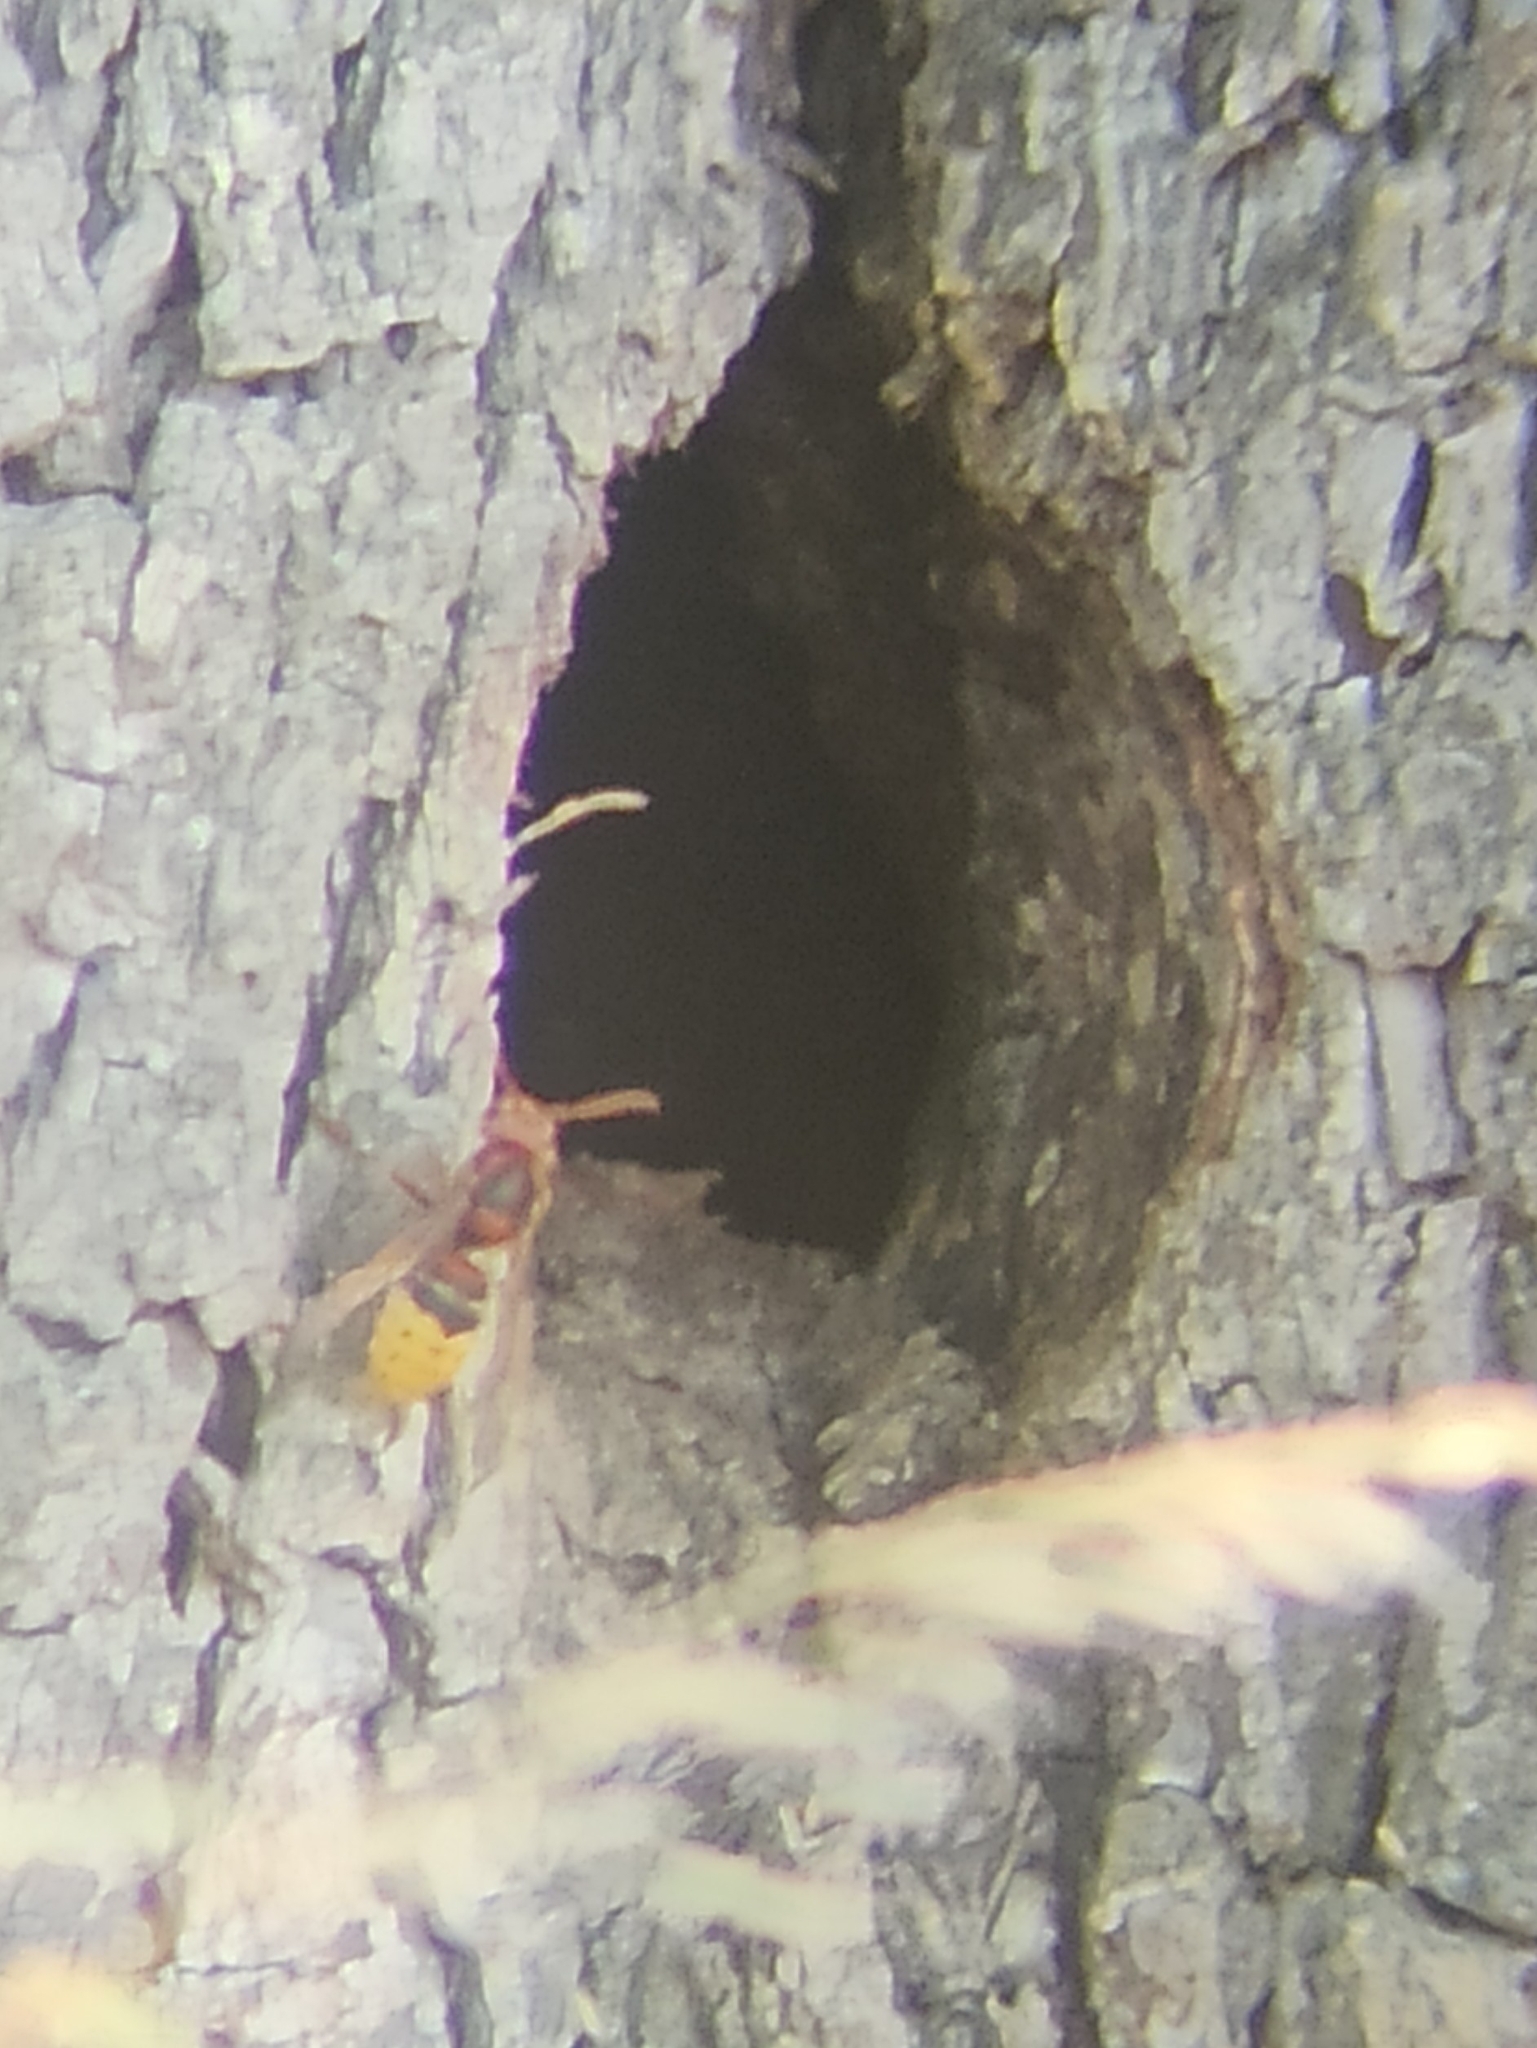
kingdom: Animalia
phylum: Arthropoda
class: Insecta
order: Hymenoptera
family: Vespidae
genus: Vespa
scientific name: Vespa crabro
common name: Hornet
